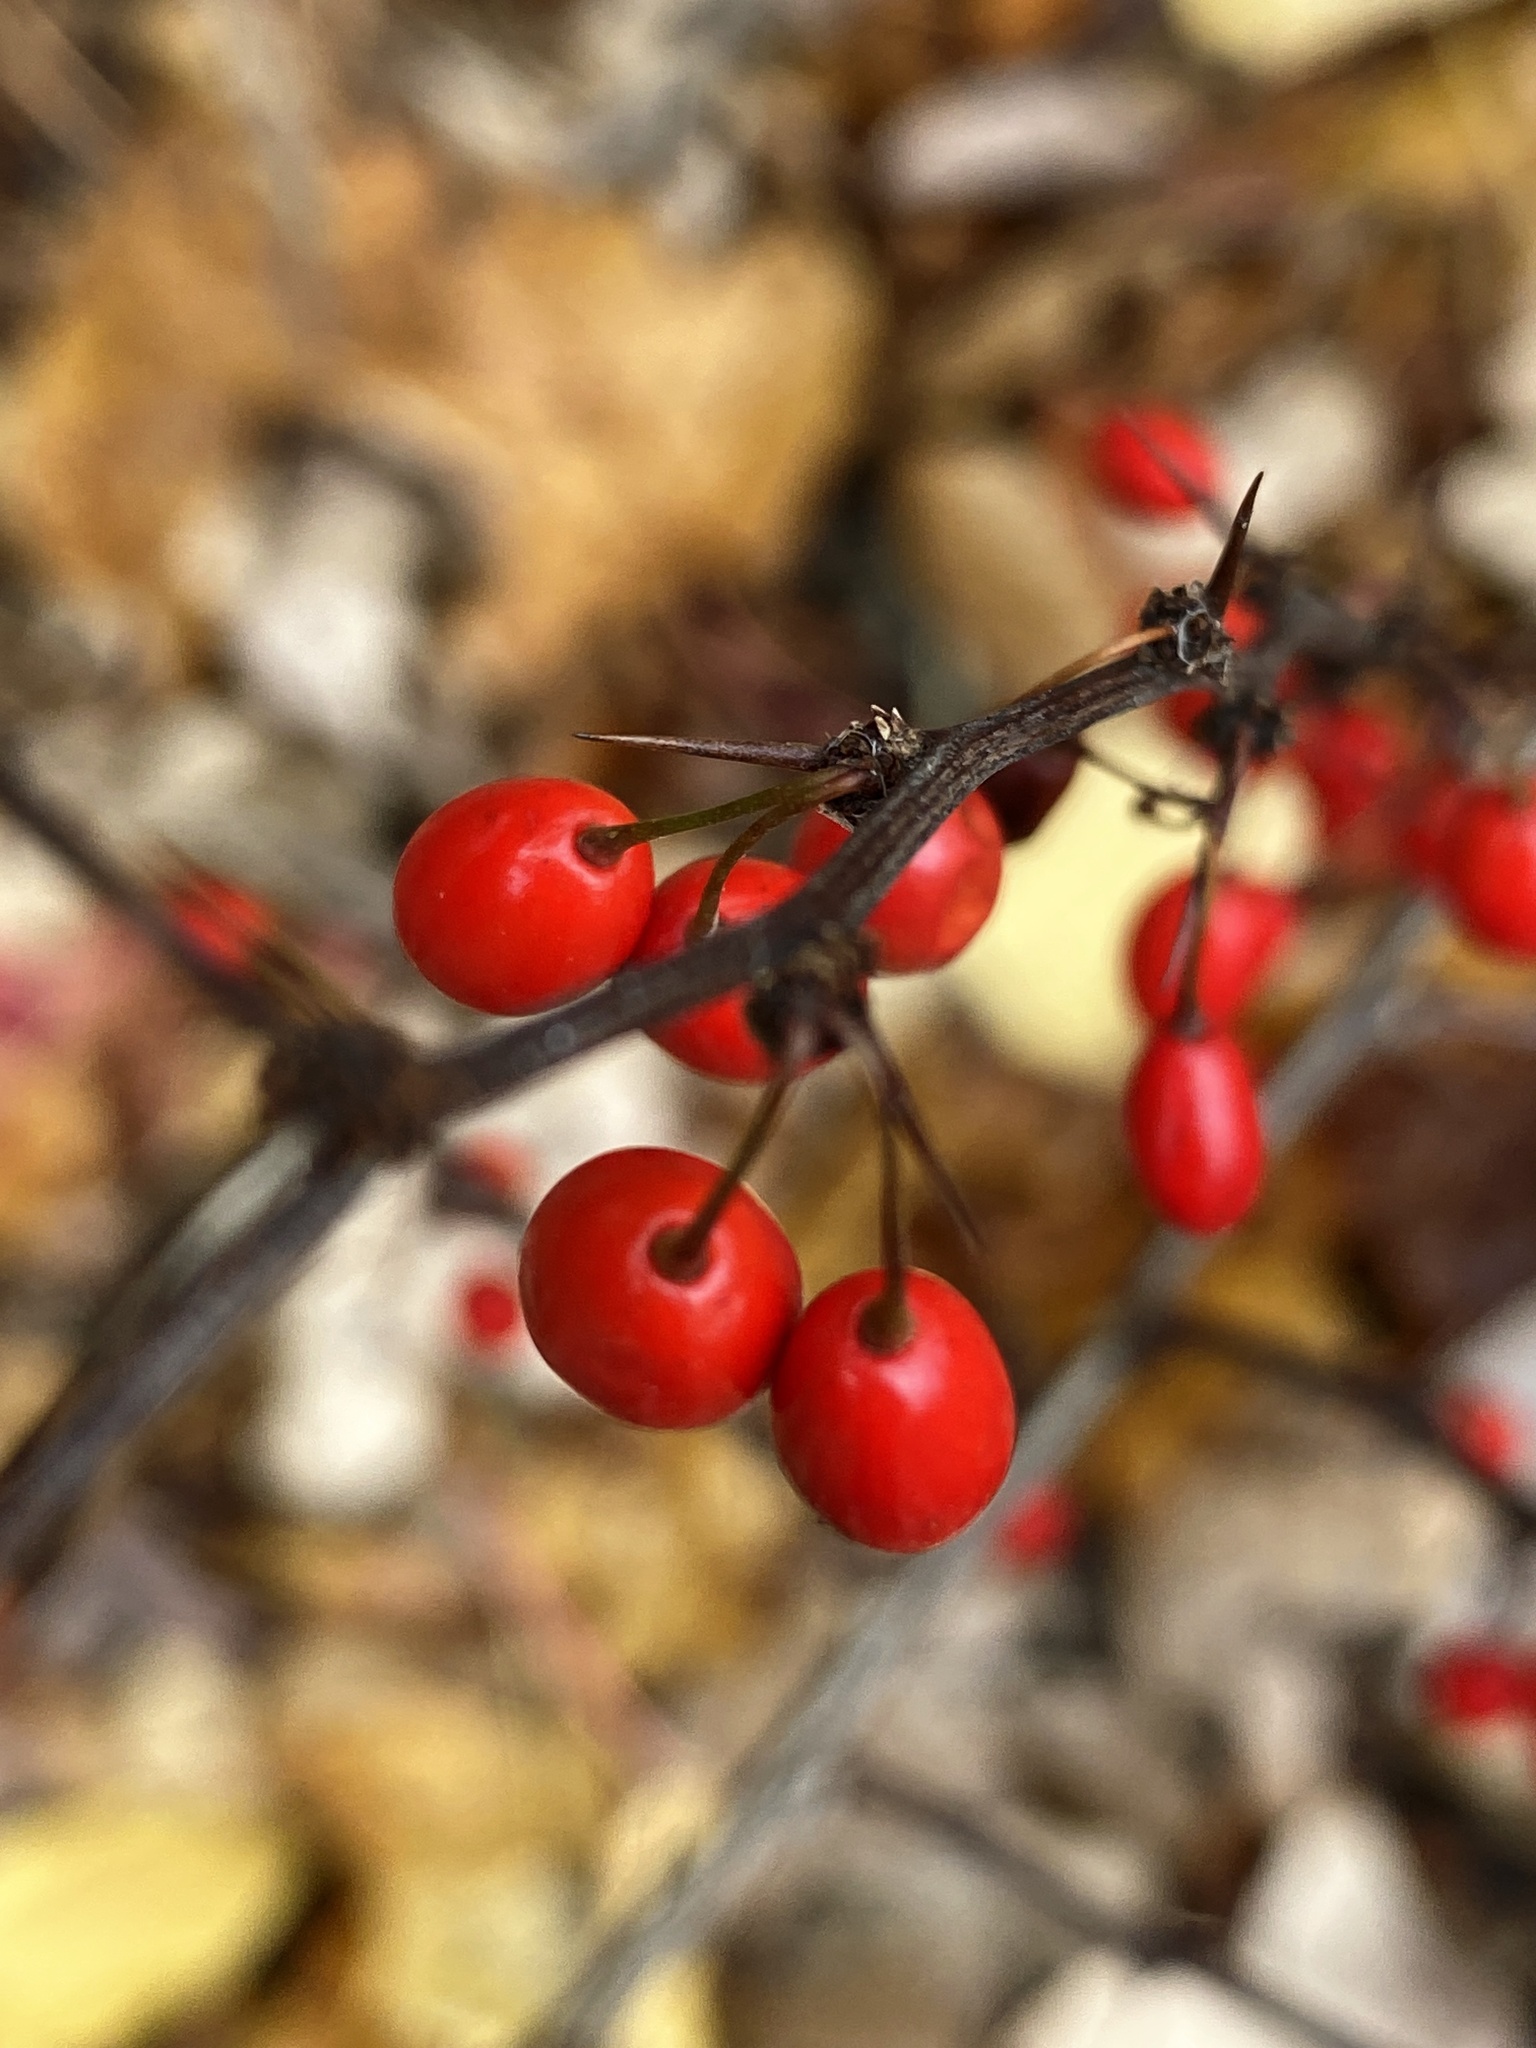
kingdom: Plantae
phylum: Tracheophyta
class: Magnoliopsida
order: Ranunculales
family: Berberidaceae
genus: Berberis
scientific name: Berberis thunbergii
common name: Japanese barberry
